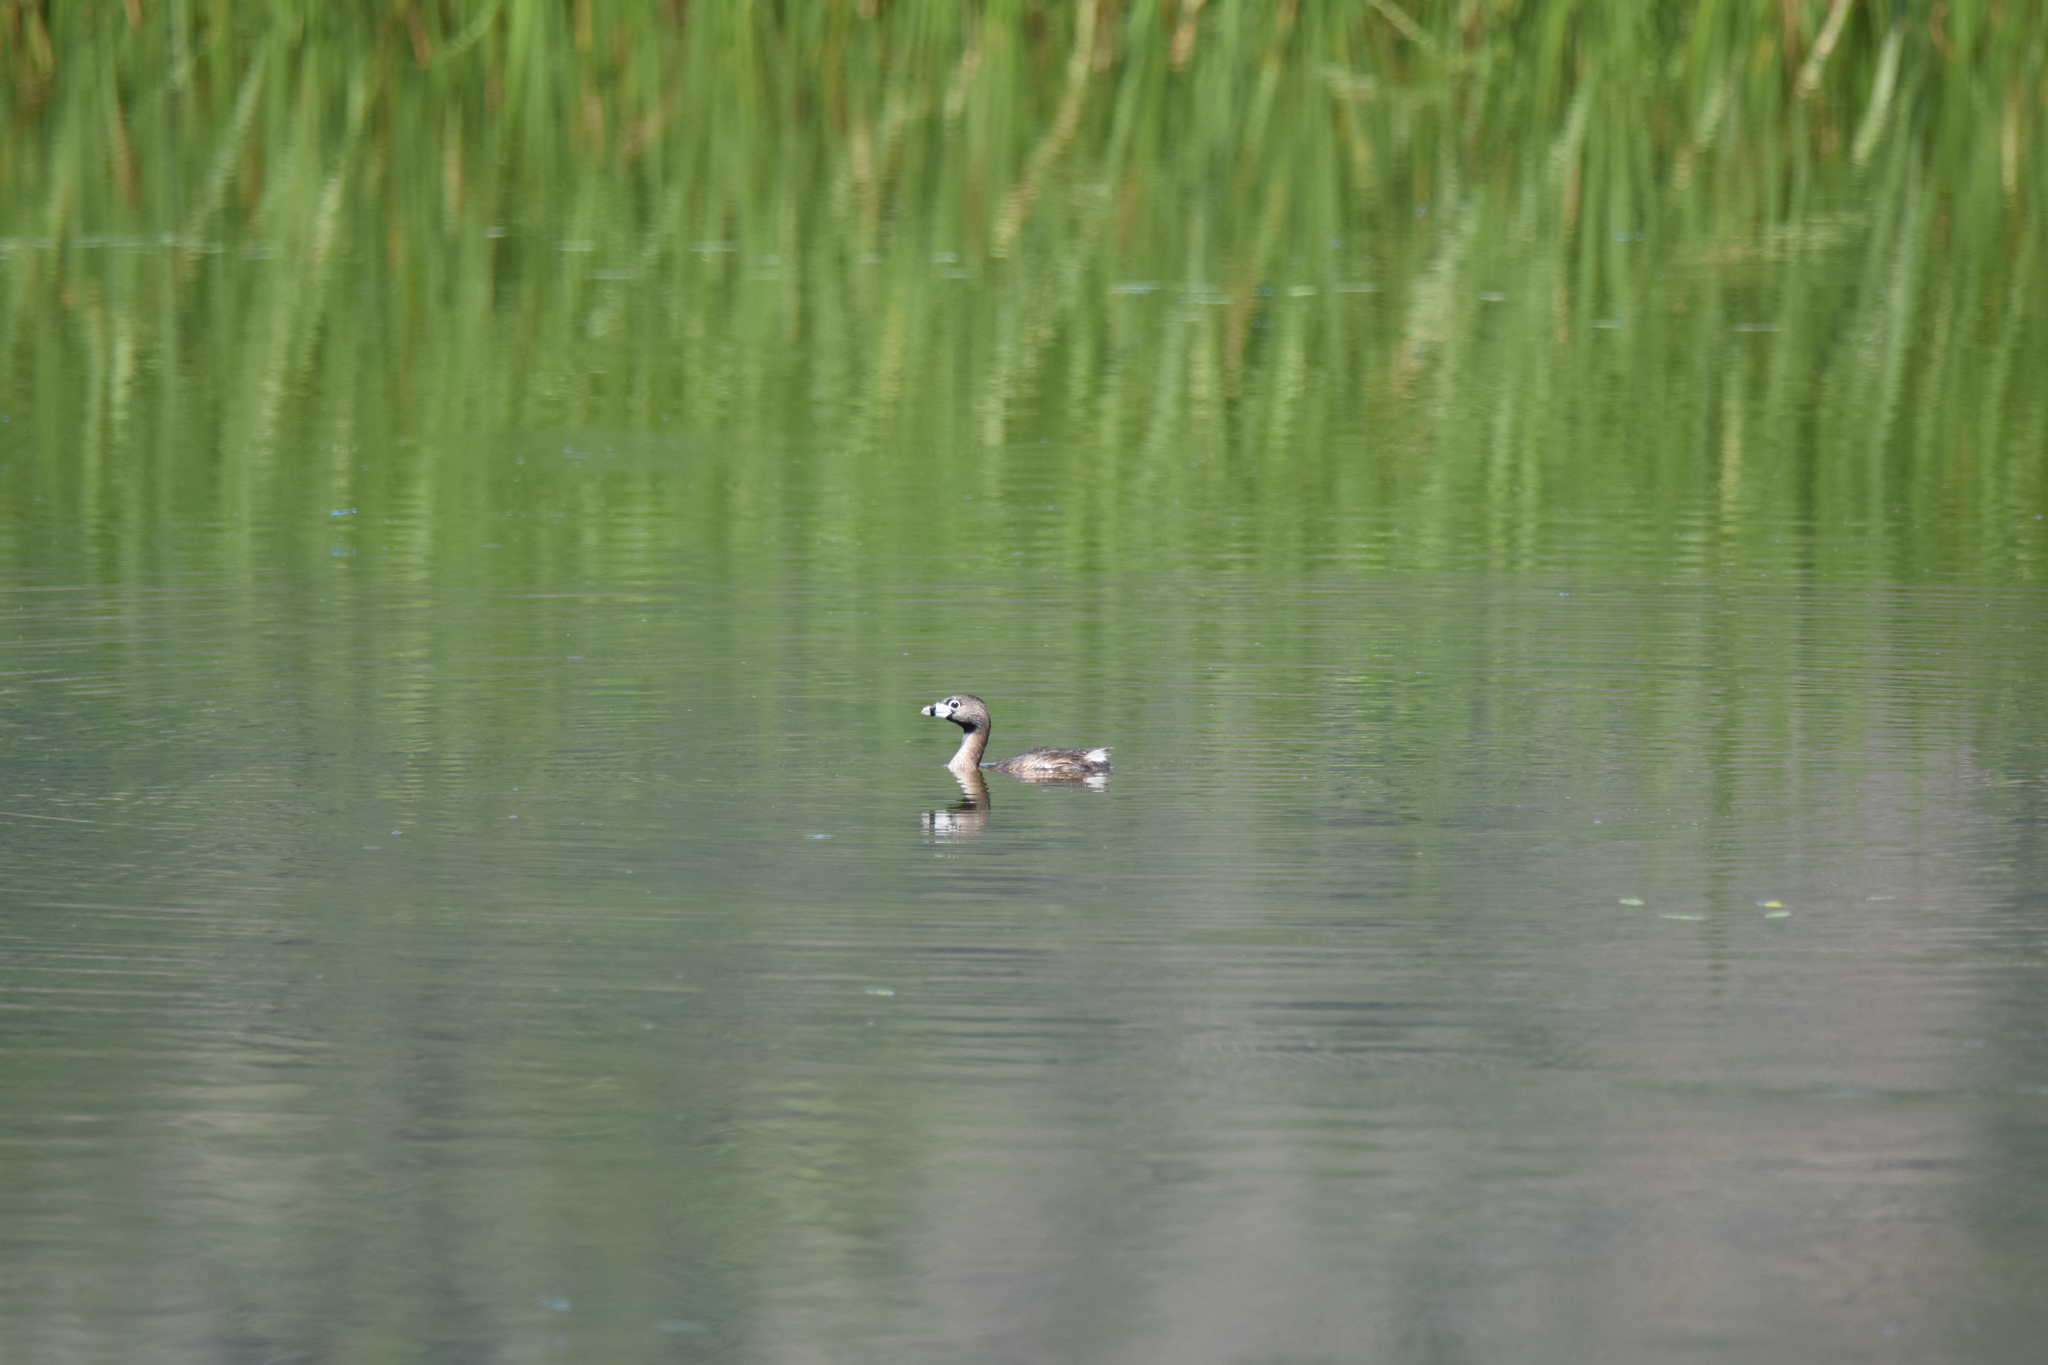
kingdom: Animalia
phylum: Chordata
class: Aves
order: Podicipediformes
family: Podicipedidae
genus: Podilymbus
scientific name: Podilymbus podiceps
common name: Pied-billed grebe
